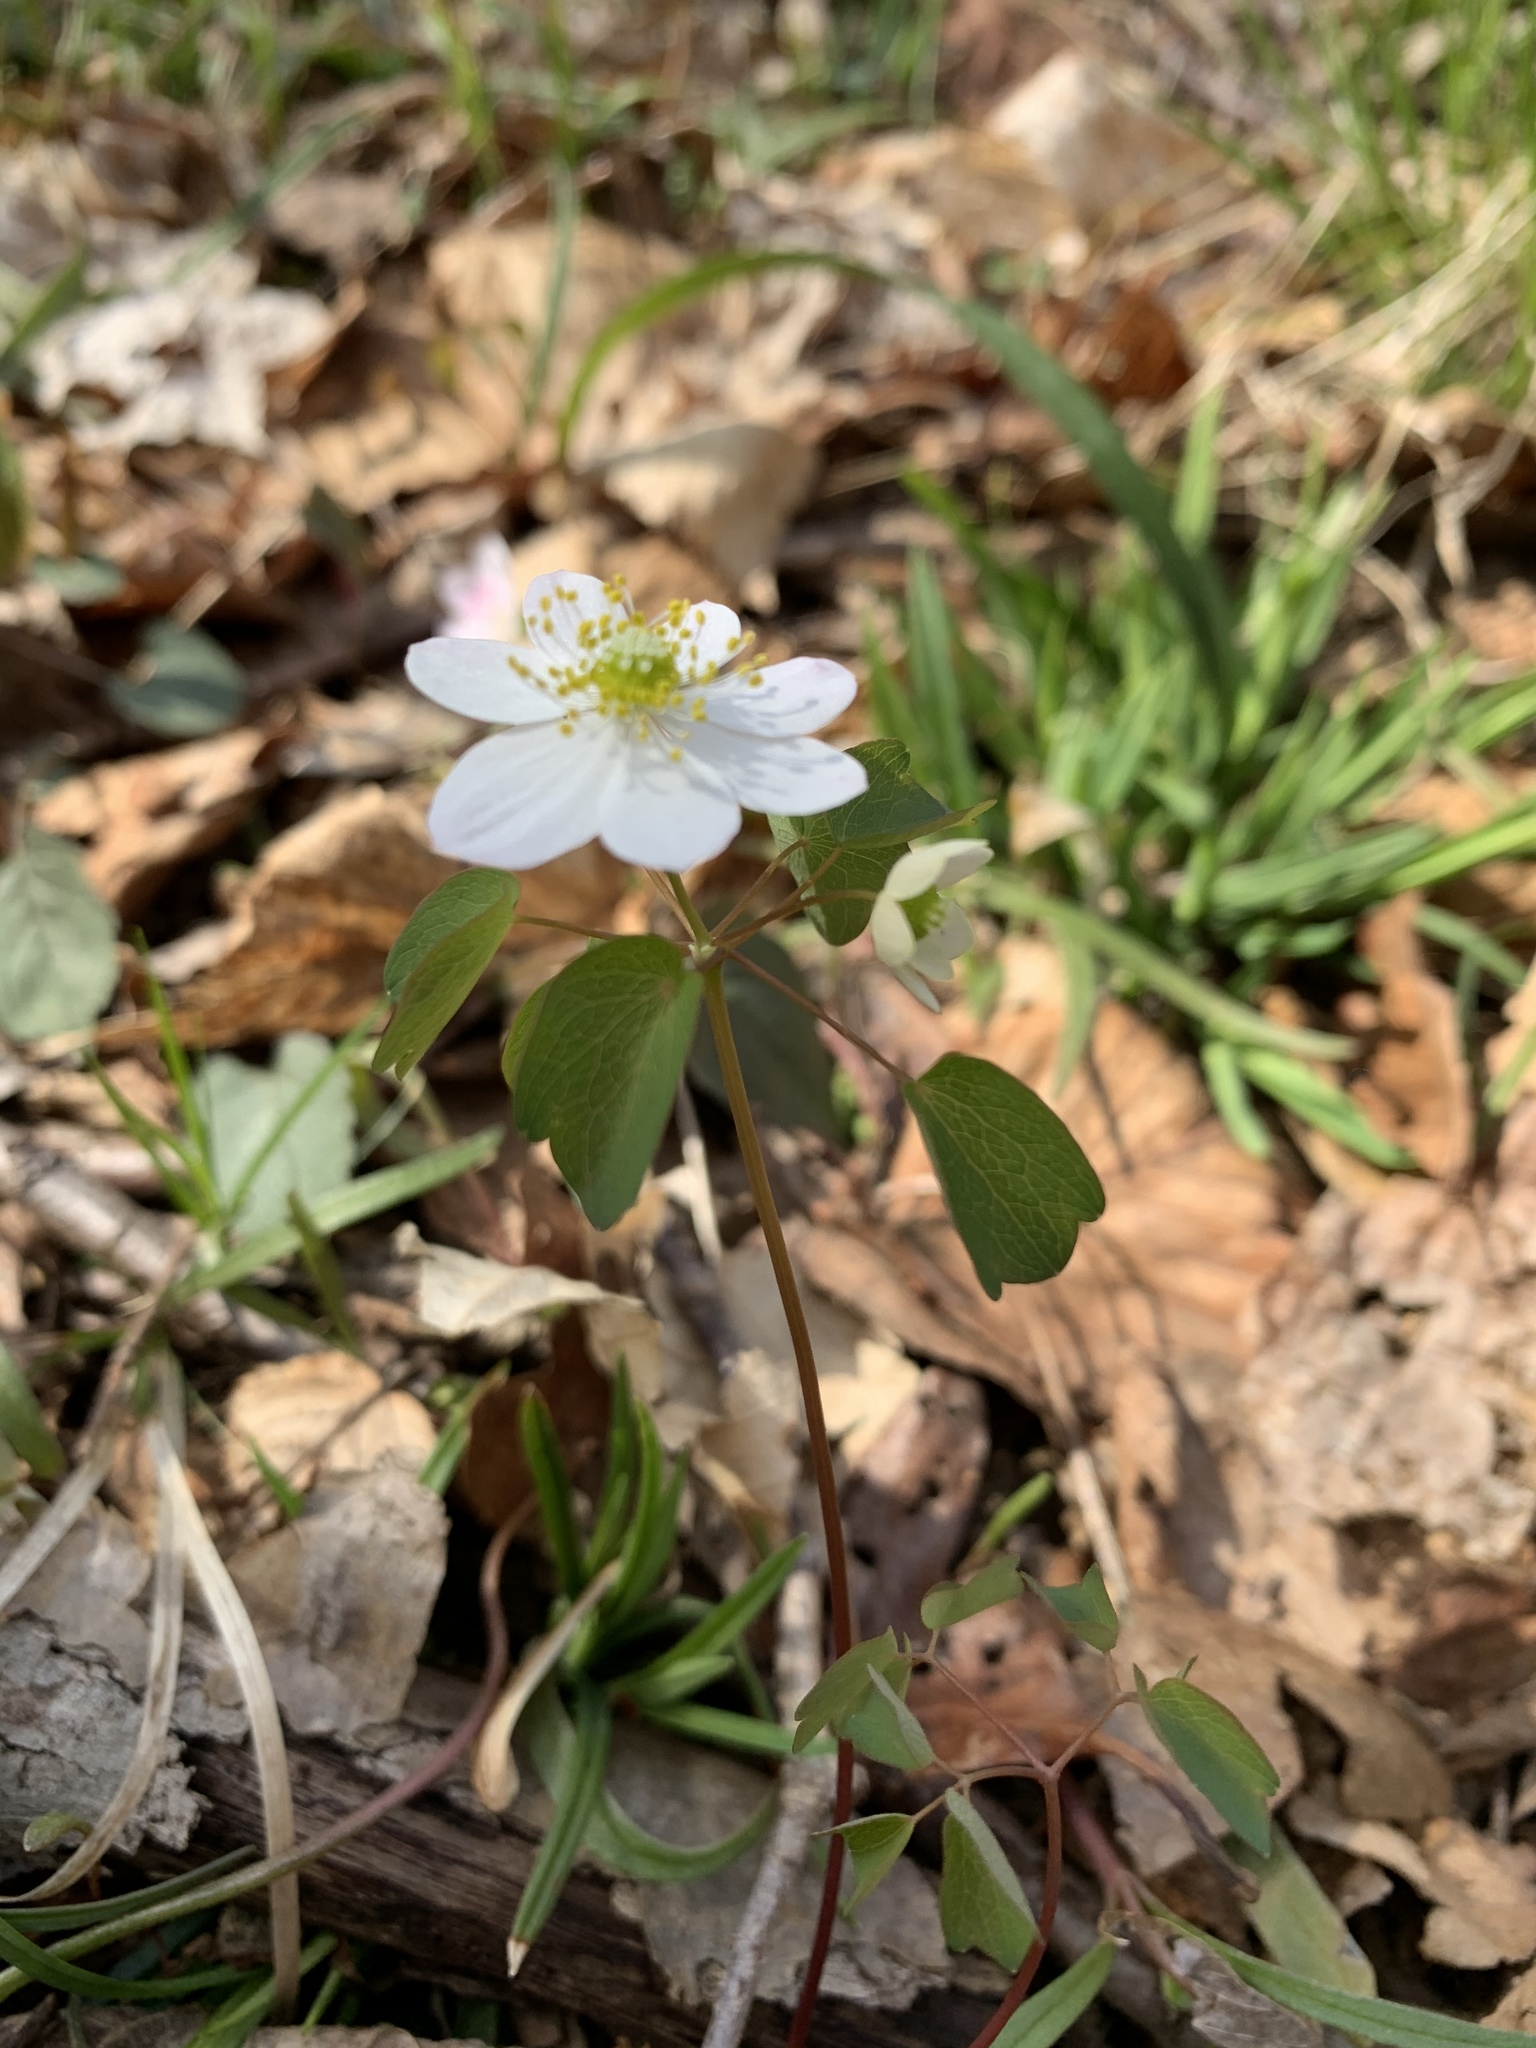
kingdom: Plantae
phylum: Tracheophyta
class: Magnoliopsida
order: Ranunculales
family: Ranunculaceae
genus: Thalictrum
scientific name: Thalictrum thalictroides
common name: Rue-anemone
